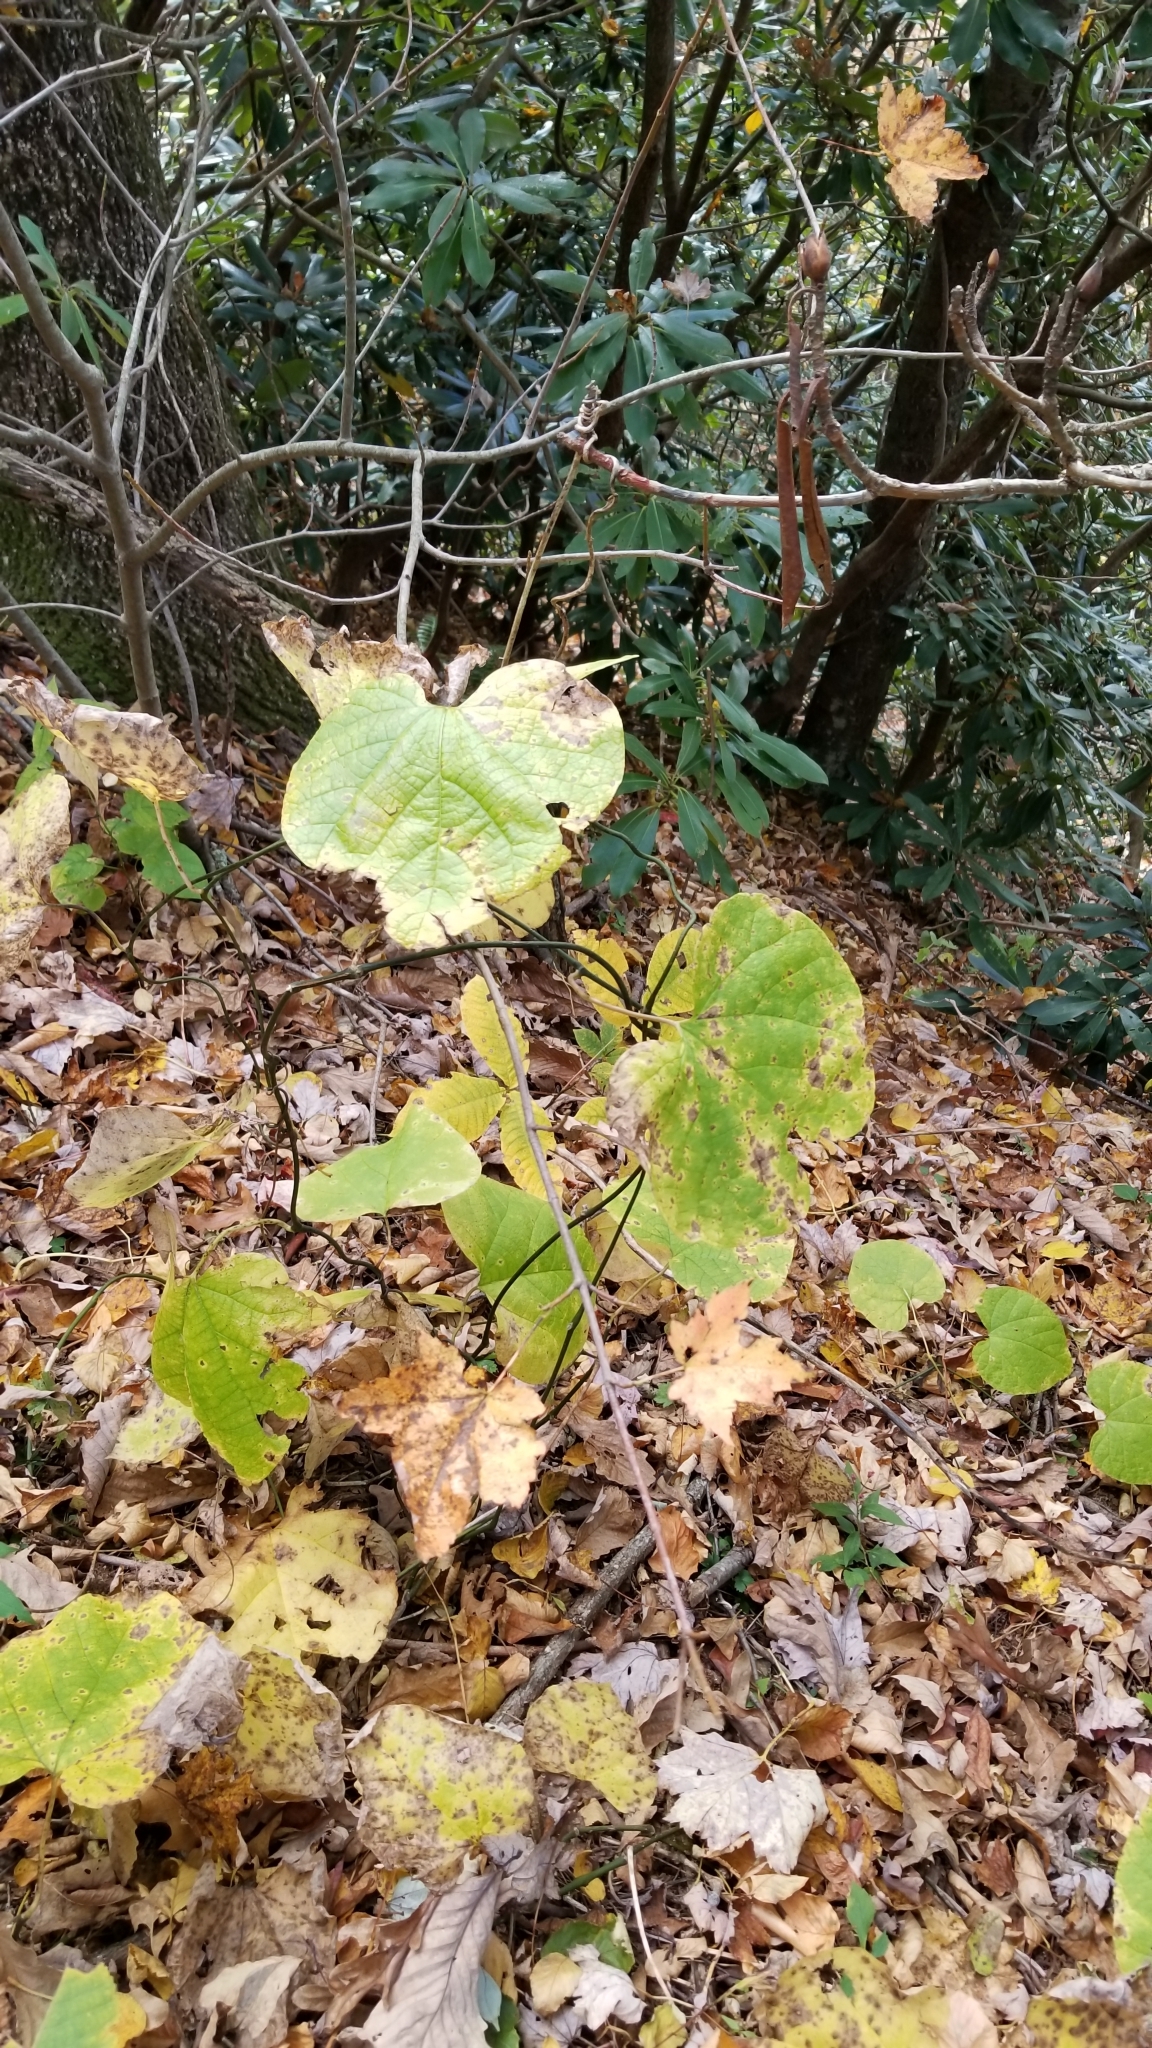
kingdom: Plantae
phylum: Tracheophyta
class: Magnoliopsida
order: Piperales
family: Aristolochiaceae
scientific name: Aristolochiaceae
